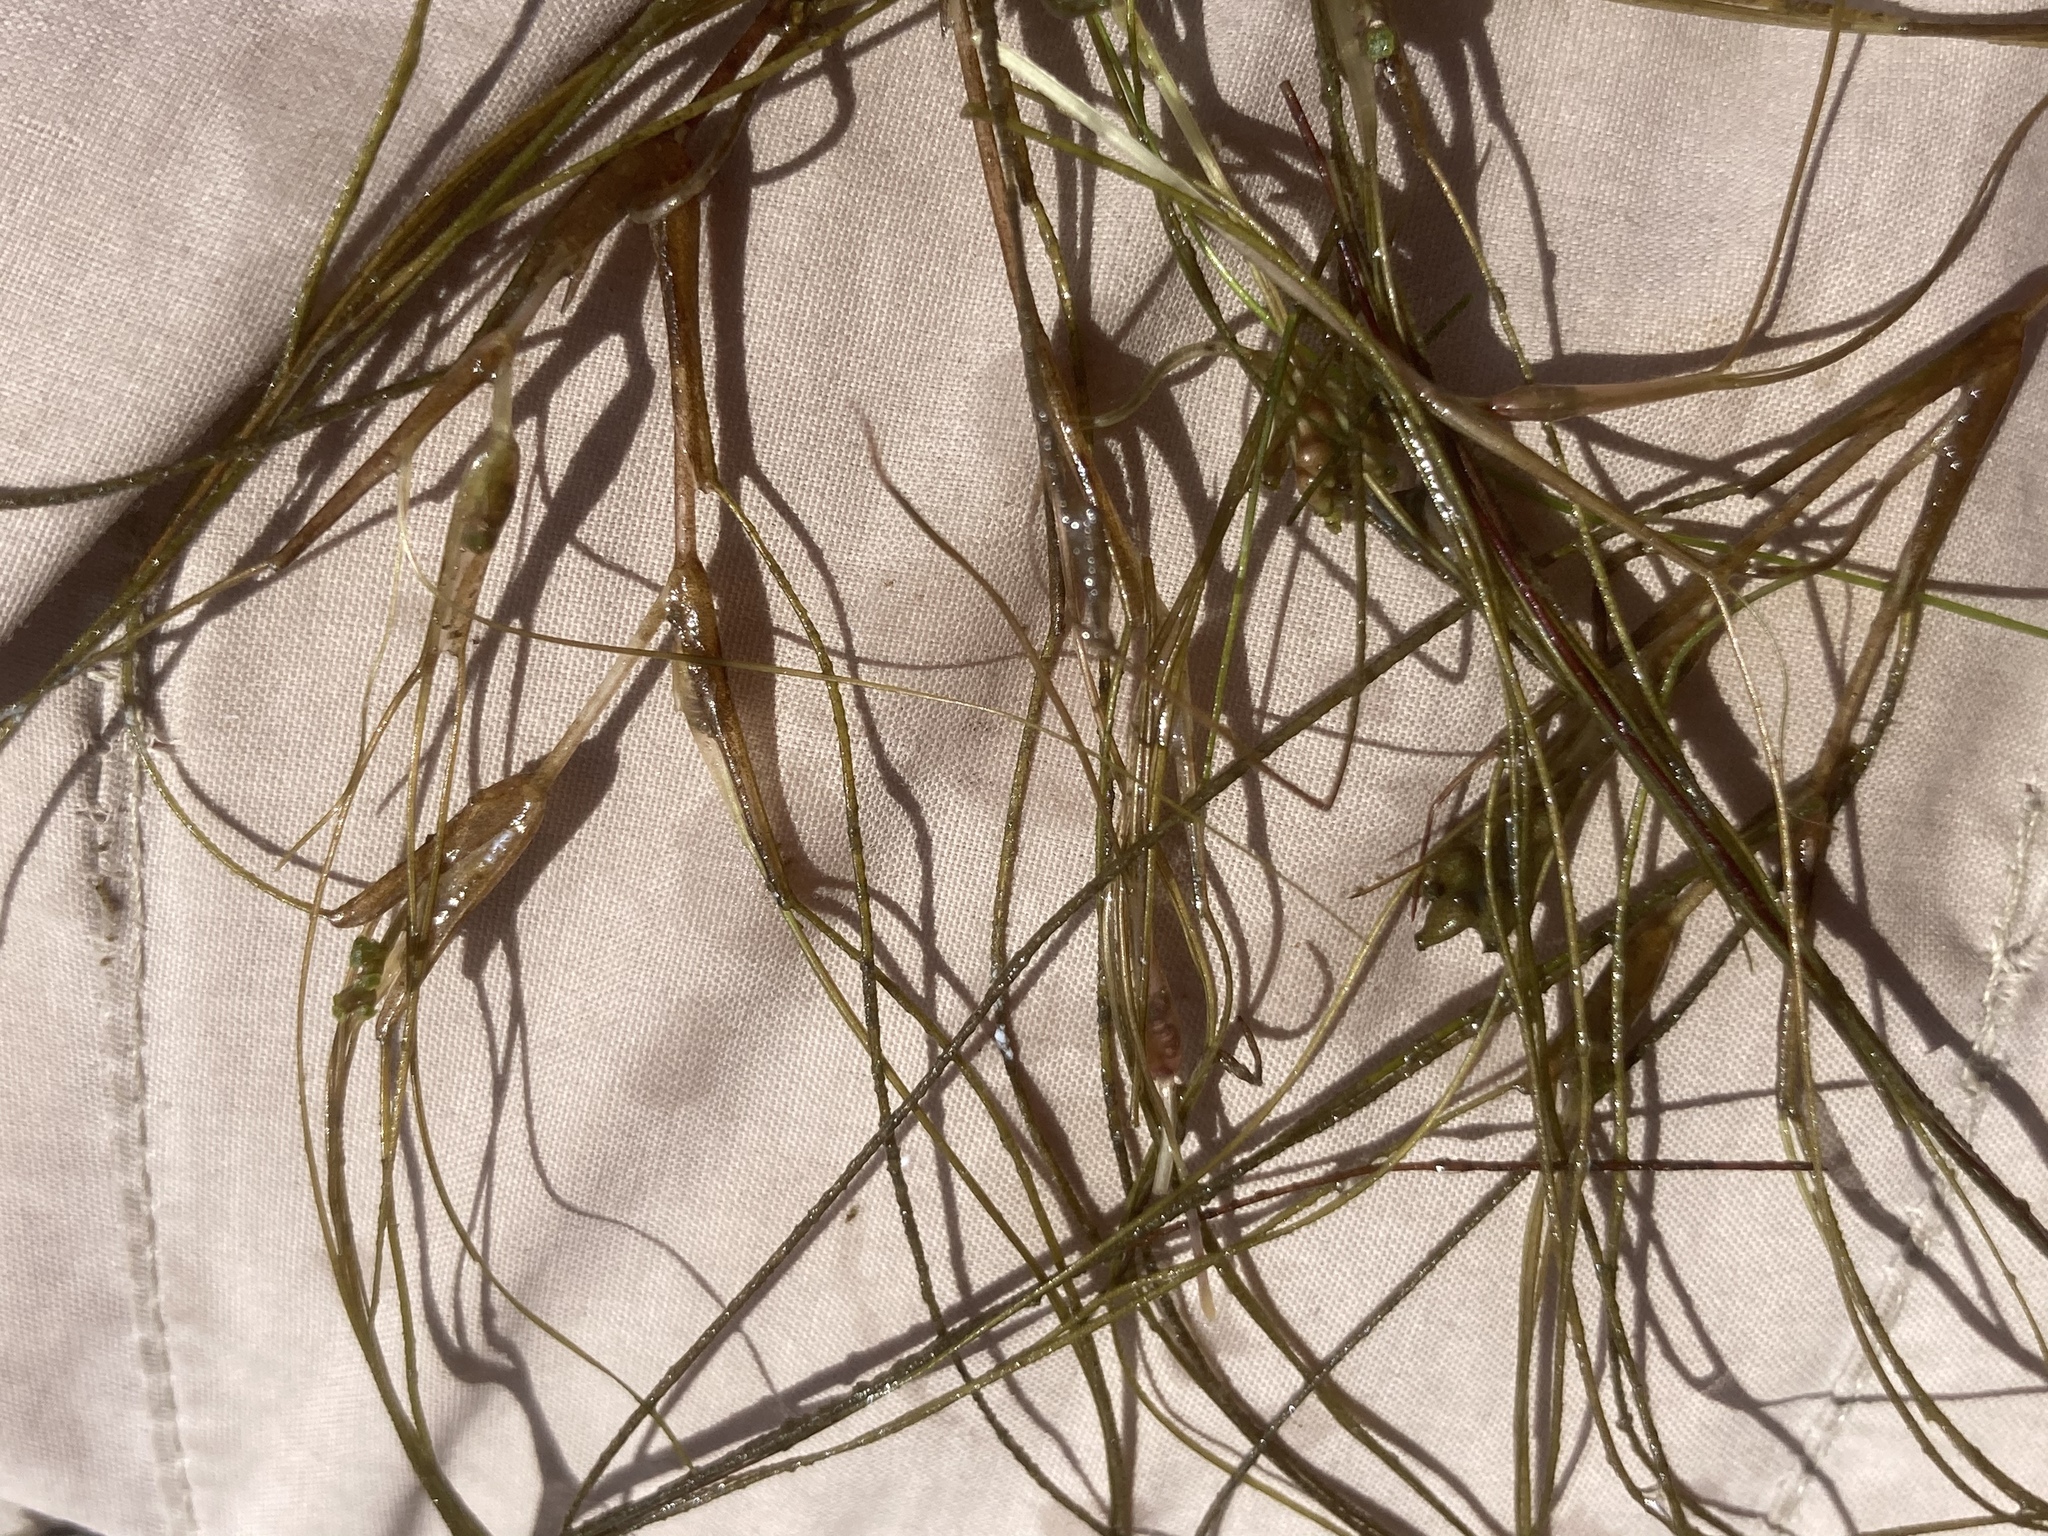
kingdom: Plantae
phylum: Tracheophyta
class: Liliopsida
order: Alismatales
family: Ruppiaceae
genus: Ruppia
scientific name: Ruppia maritima
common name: Beaked tasselweed
